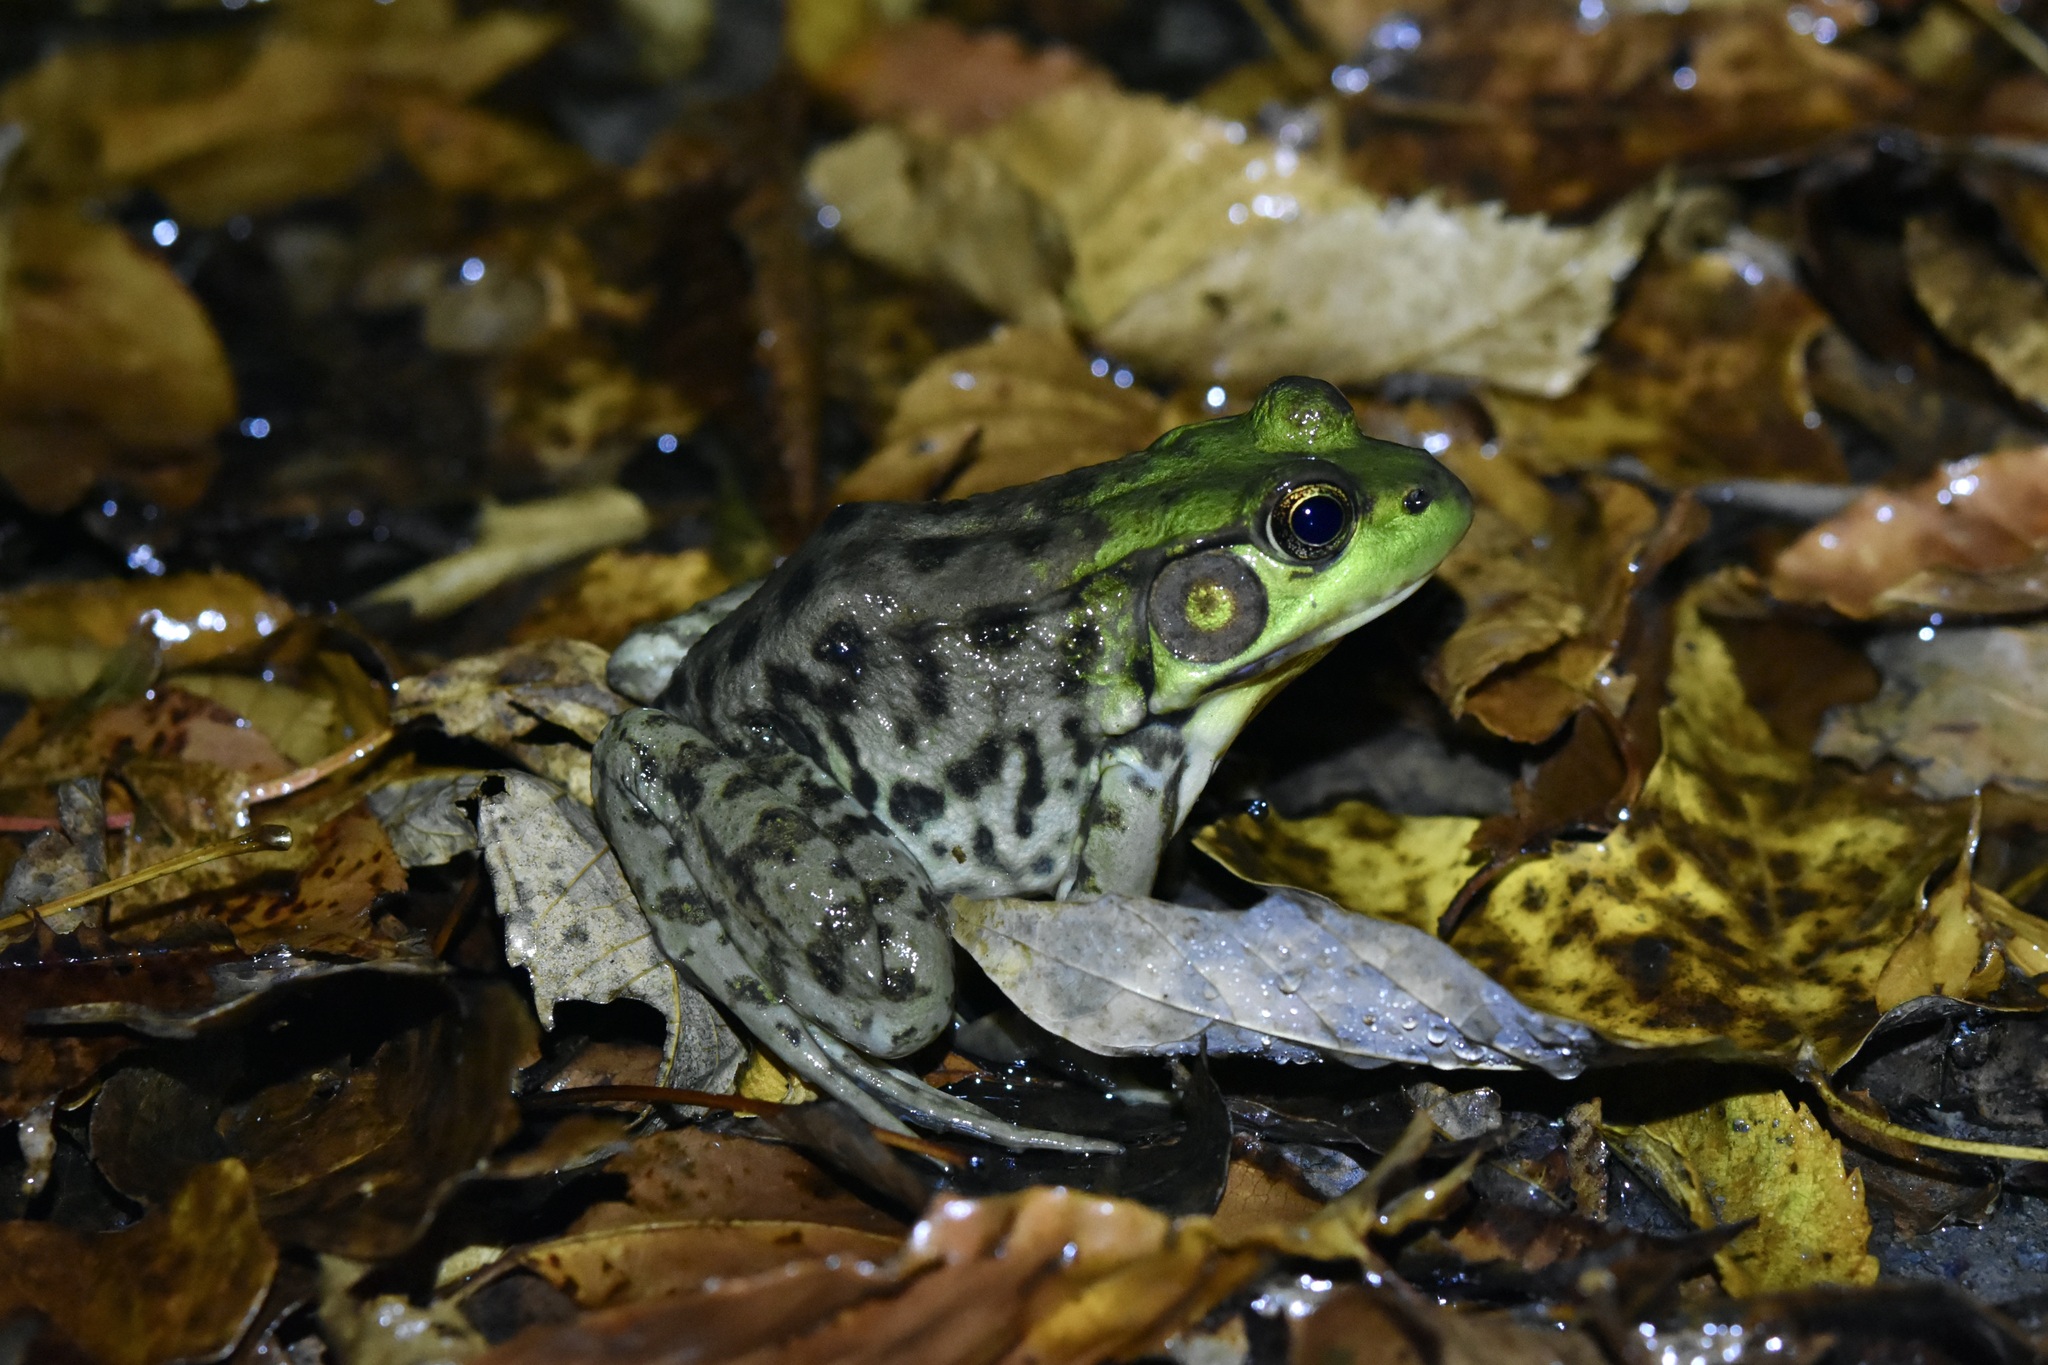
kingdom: Animalia
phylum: Chordata
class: Amphibia
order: Anura
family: Ranidae
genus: Lithobates
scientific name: Lithobates clamitans
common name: Green frog
